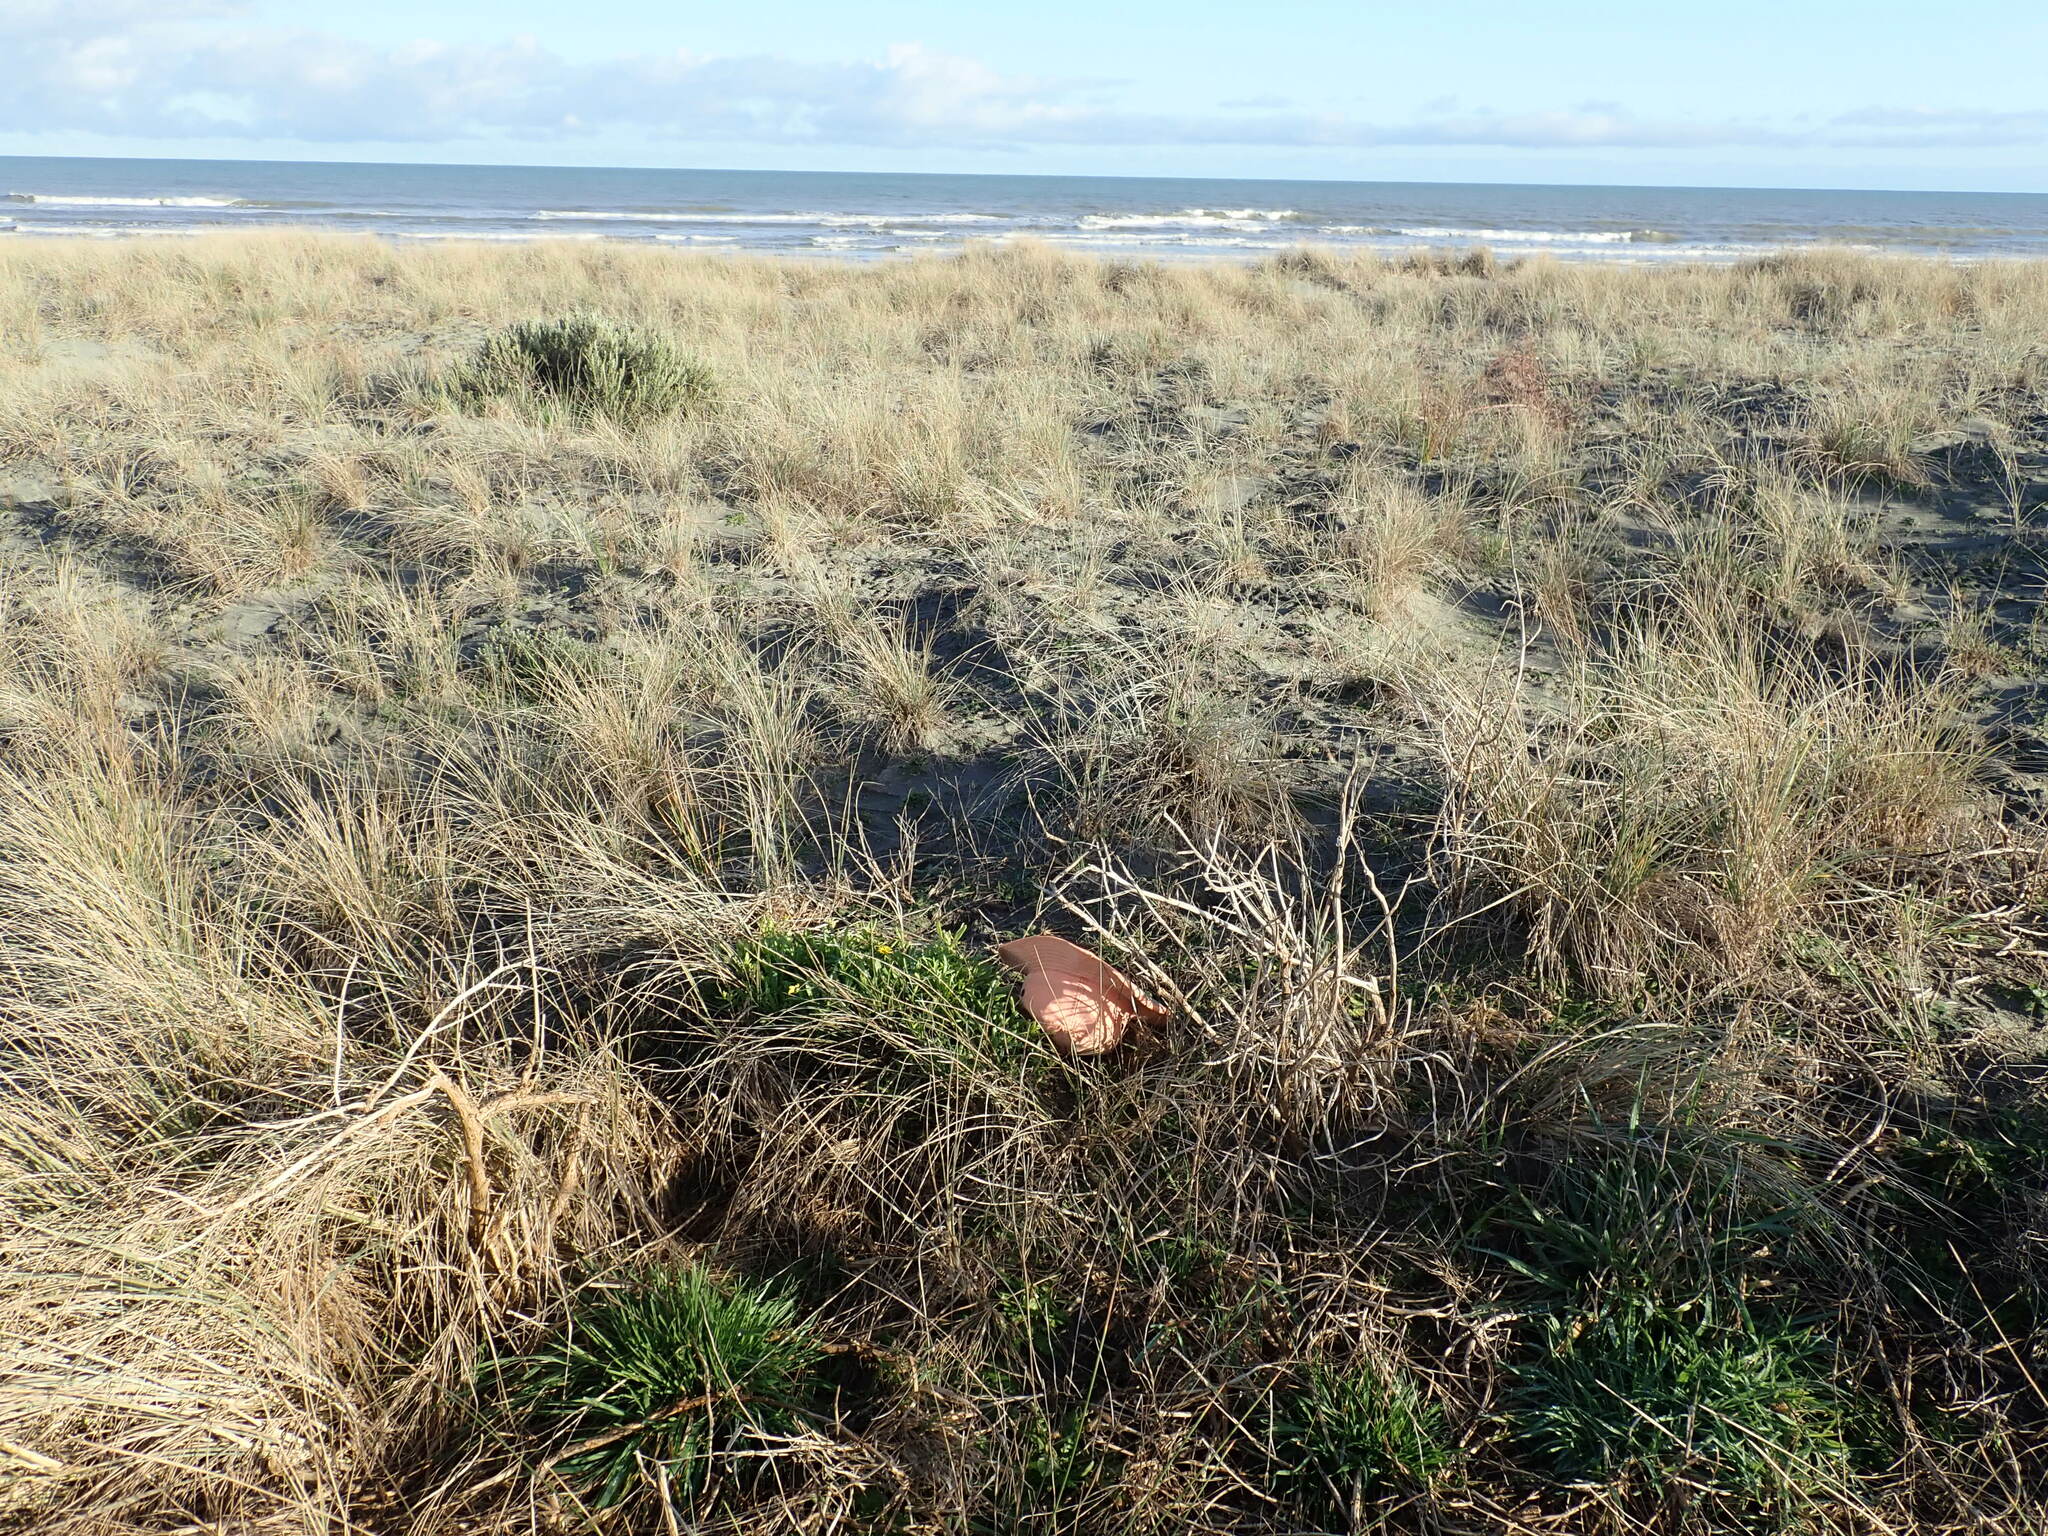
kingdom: Plantae
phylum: Tracheophyta
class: Magnoliopsida
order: Asterales
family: Asteraceae
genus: Senecio
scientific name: Senecio skirrhodon
